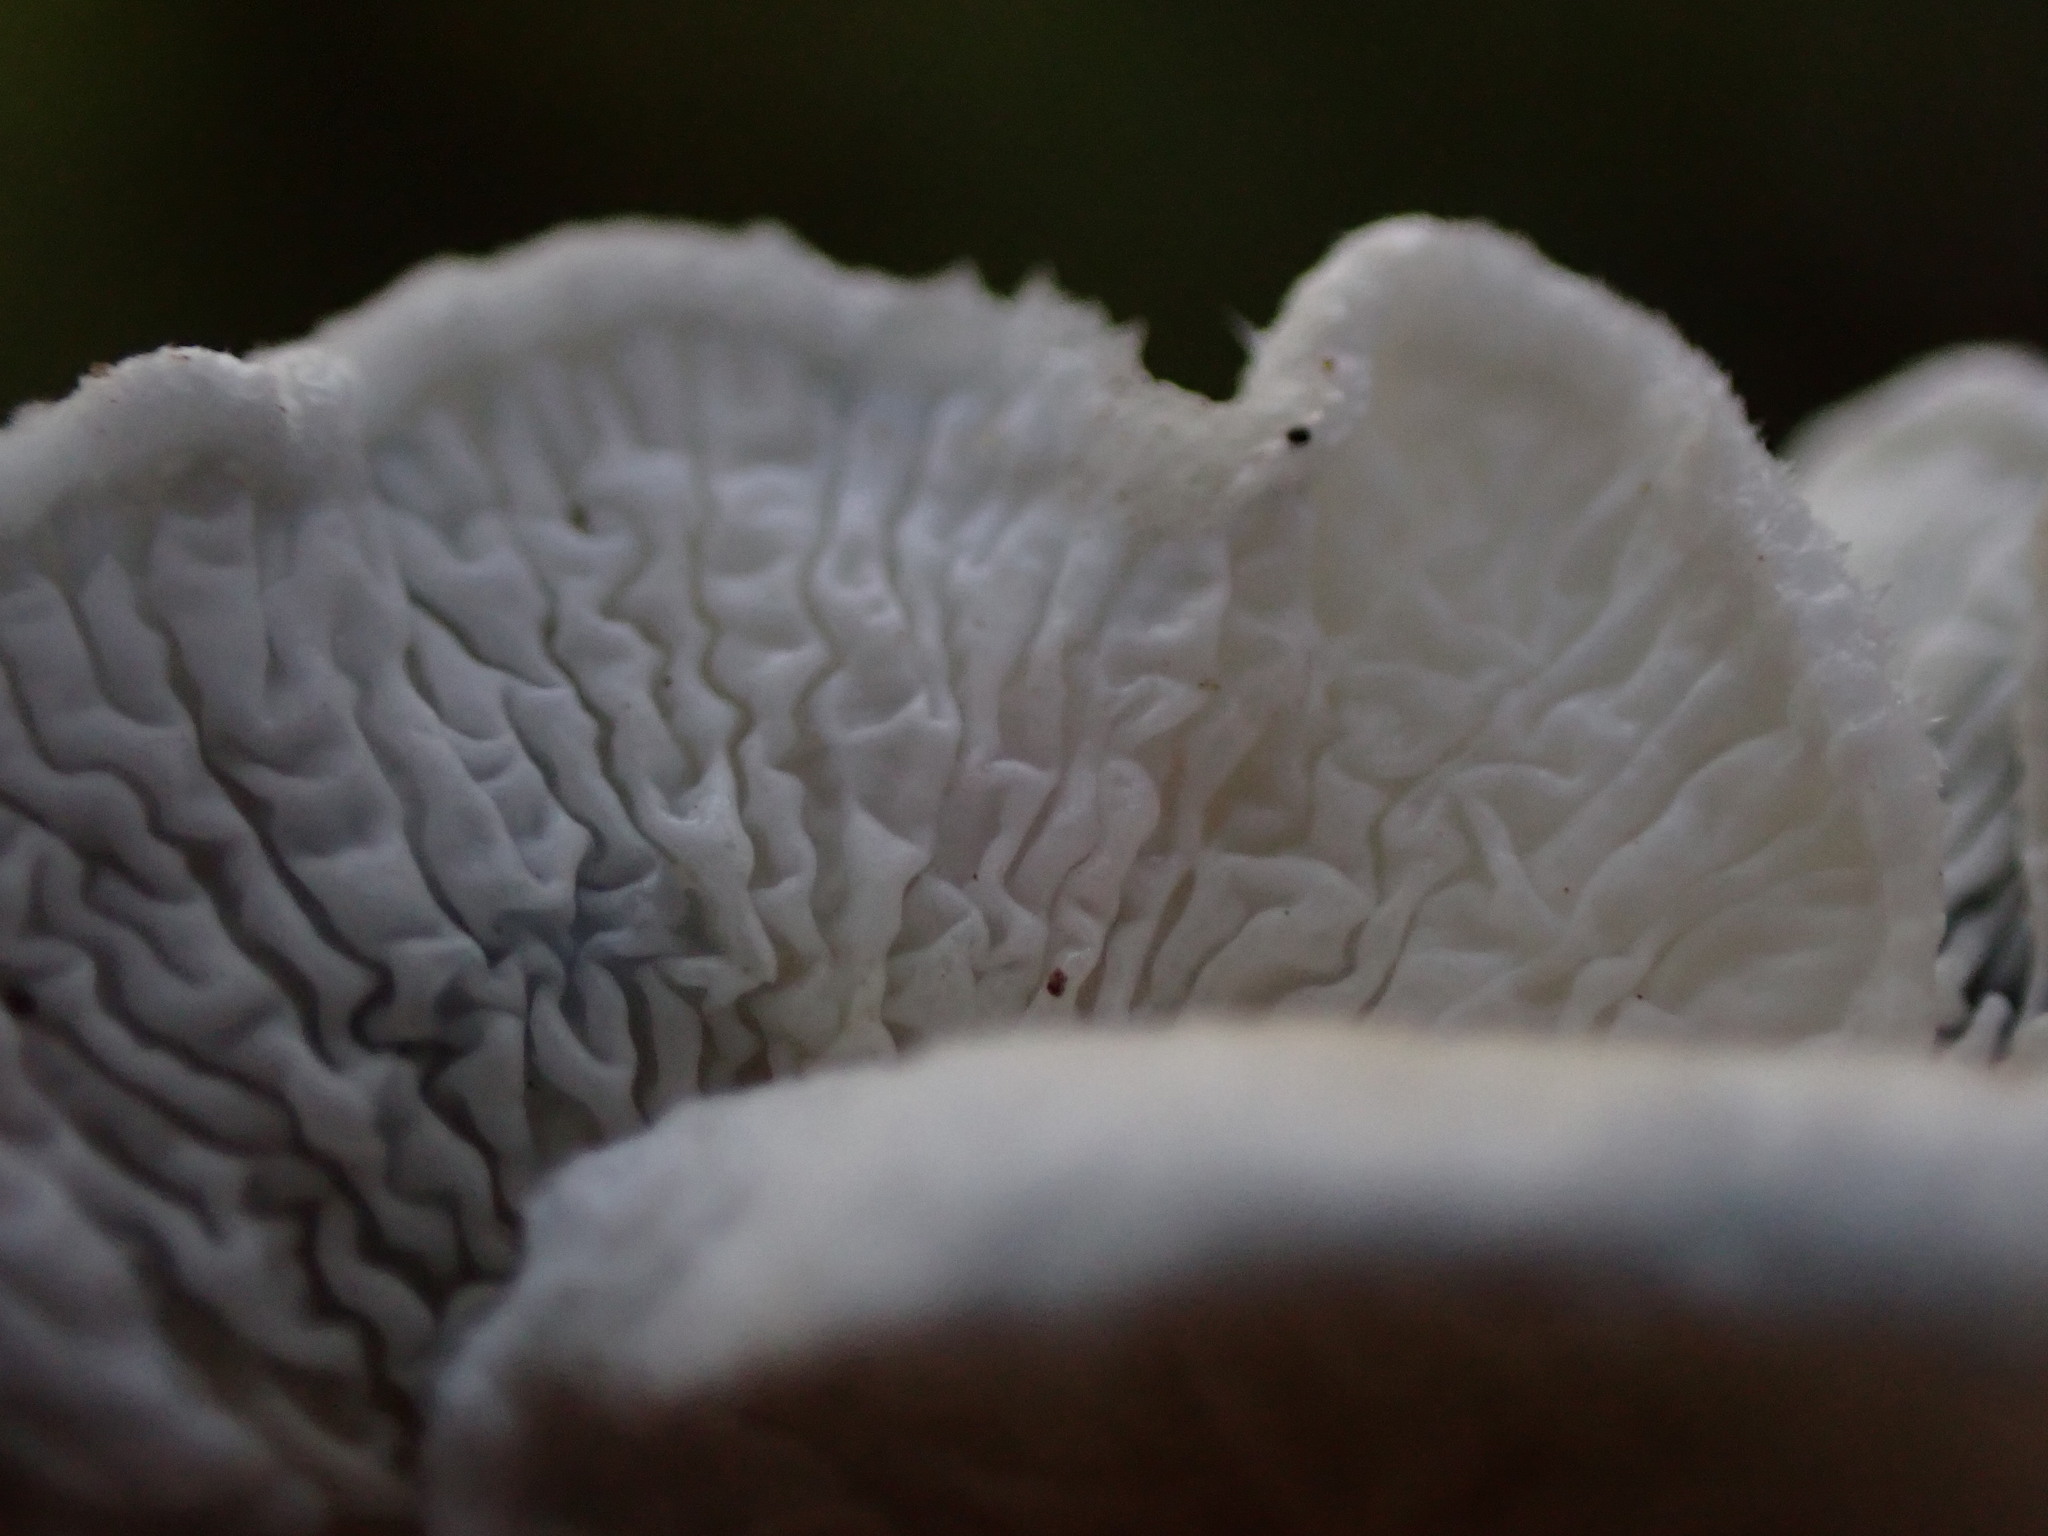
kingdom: Fungi
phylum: Basidiomycota
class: Agaricomycetes
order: Amylocorticiales
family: Amylocorticiaceae
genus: Plicaturopsis
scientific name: Plicaturopsis crispa
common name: Crimped gill
